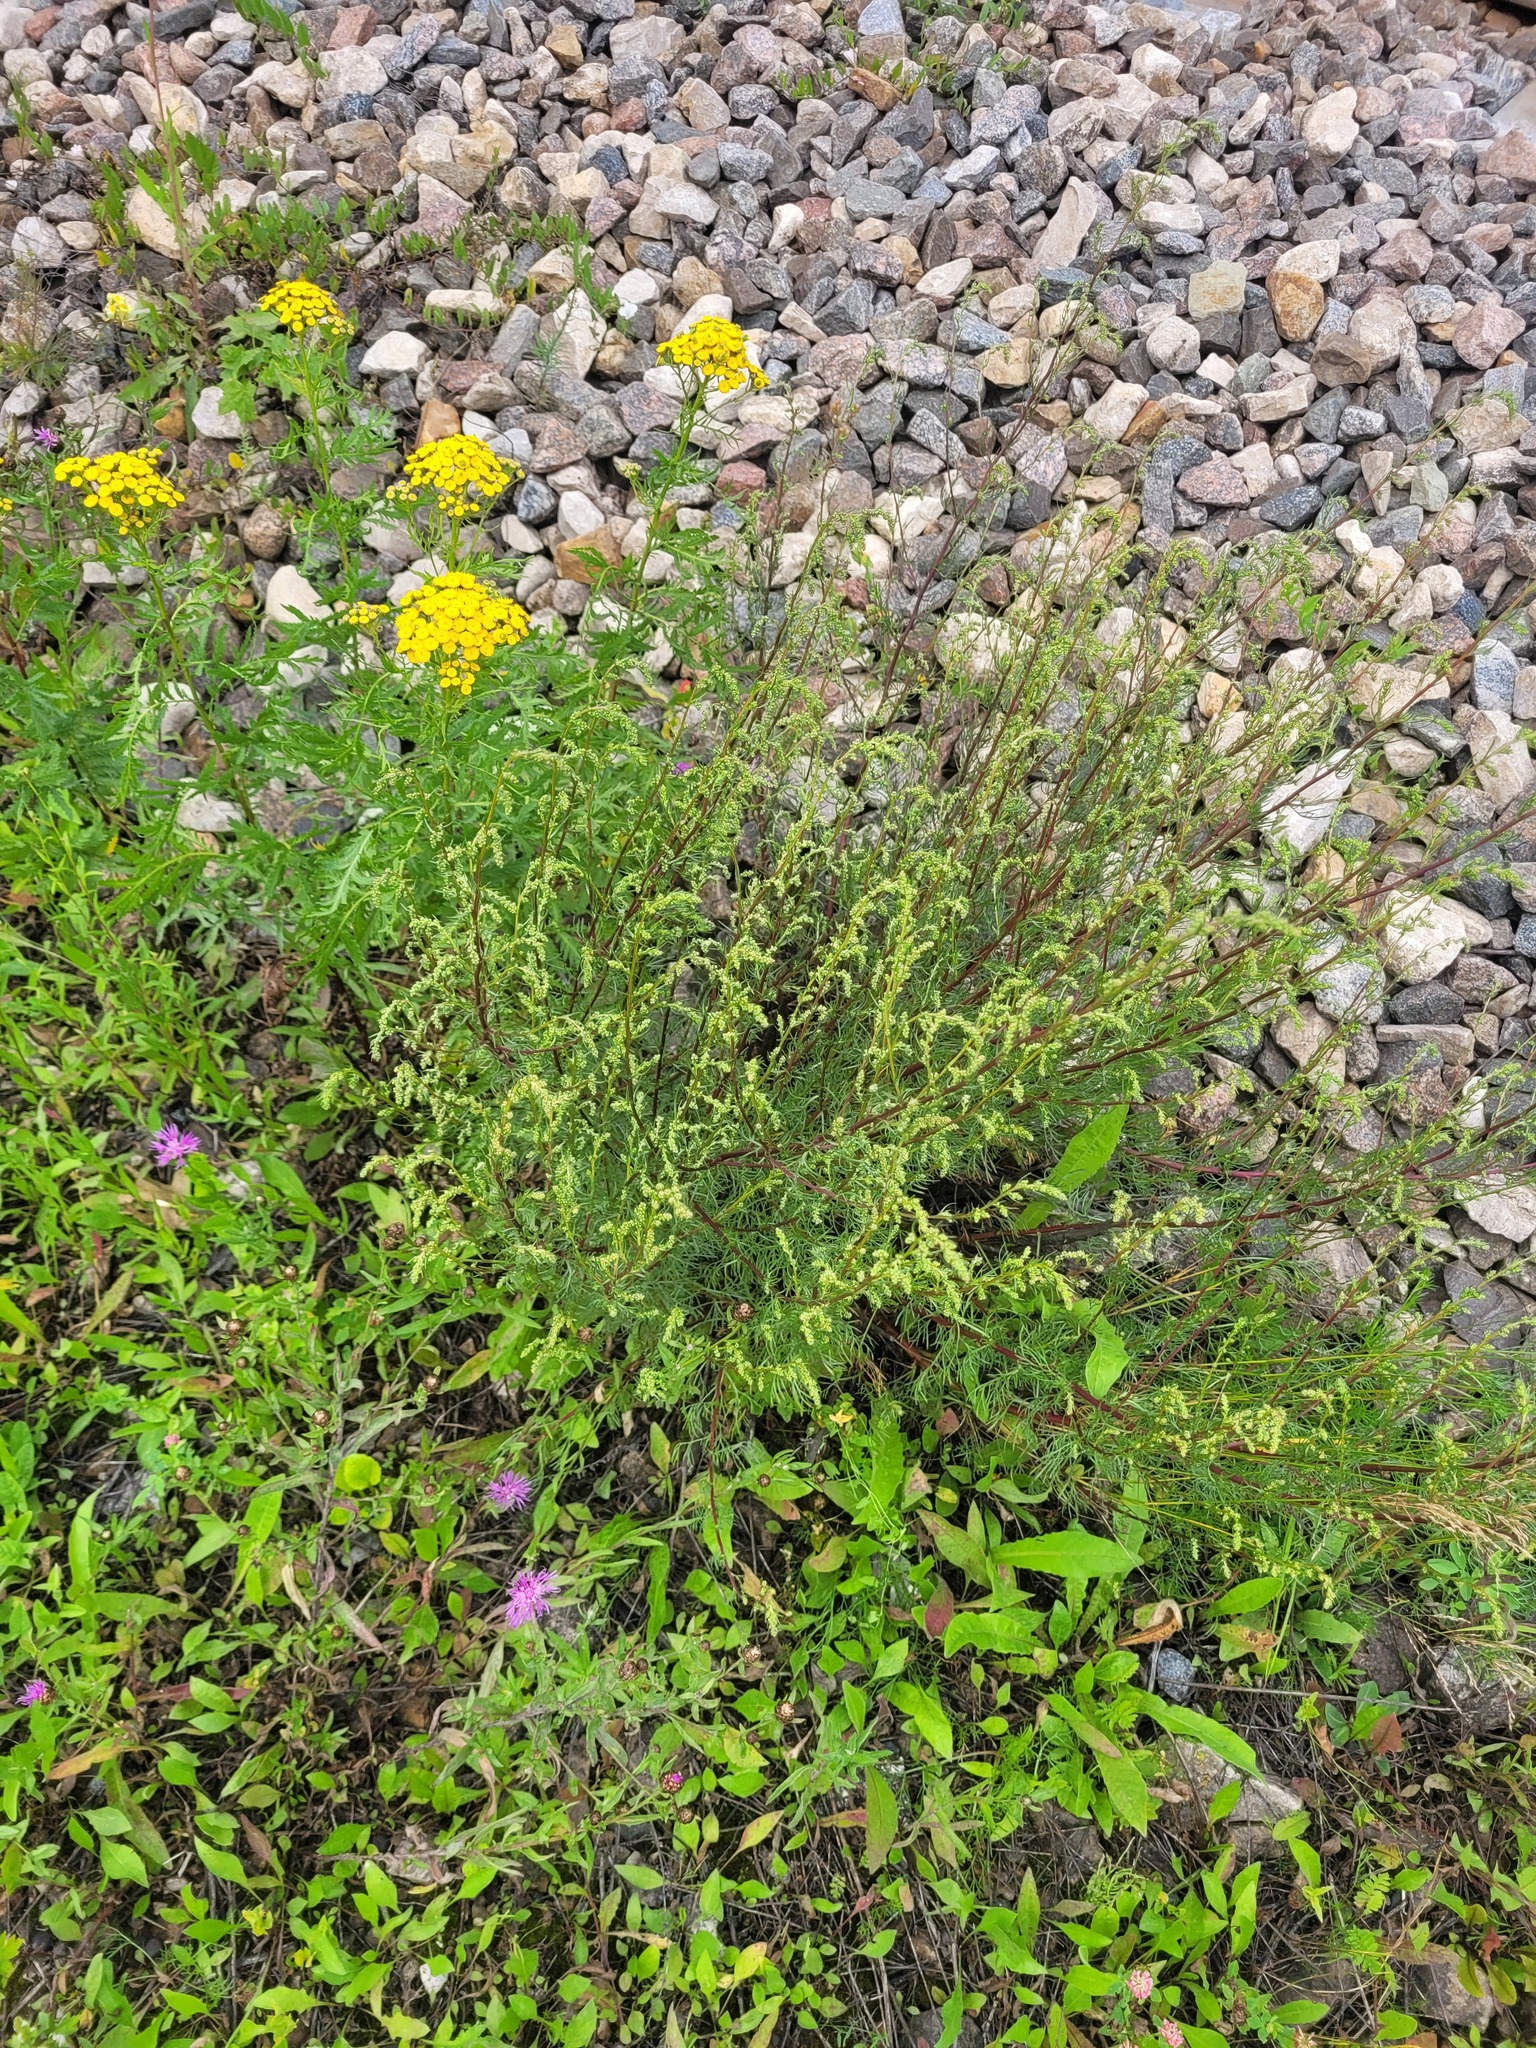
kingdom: Plantae
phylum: Tracheophyta
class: Magnoliopsida
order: Asterales
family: Asteraceae
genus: Artemisia
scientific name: Artemisia campestris
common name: Field wormwood
